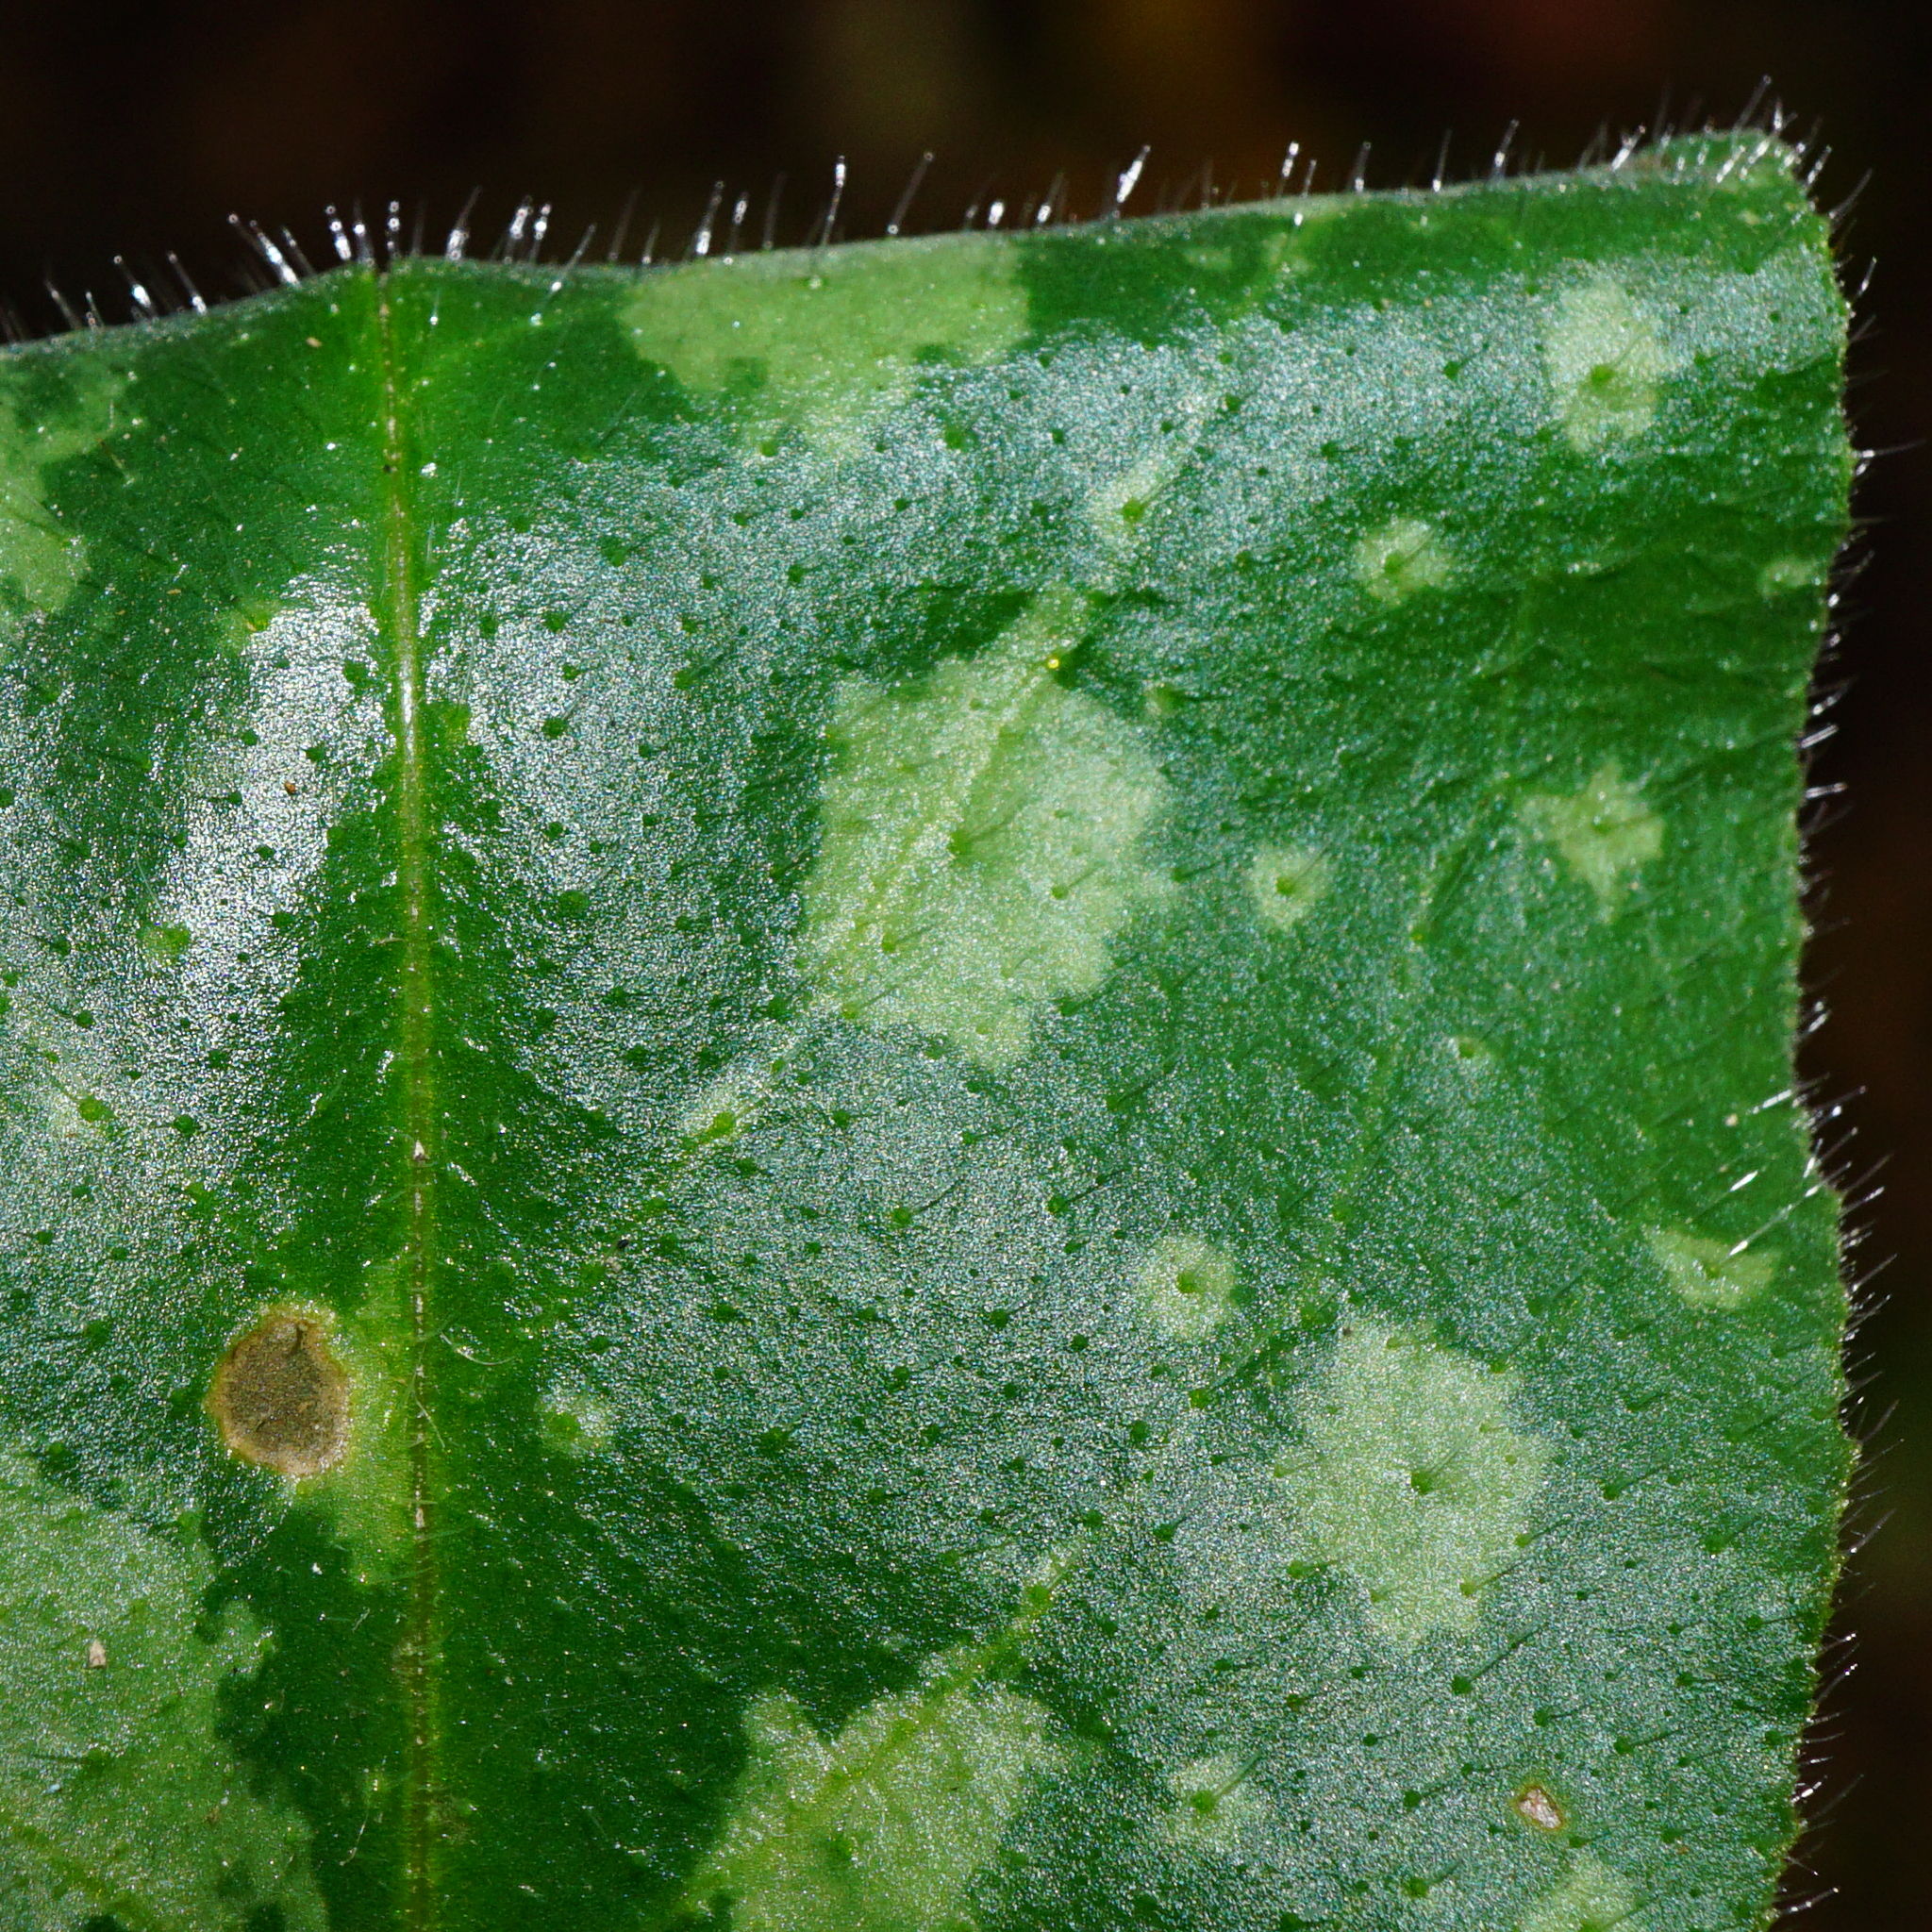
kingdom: Plantae
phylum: Tracheophyta
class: Magnoliopsida
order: Boraginales
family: Boraginaceae
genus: Pulmonaria
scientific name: Pulmonaria officinalis
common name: Lungwort
